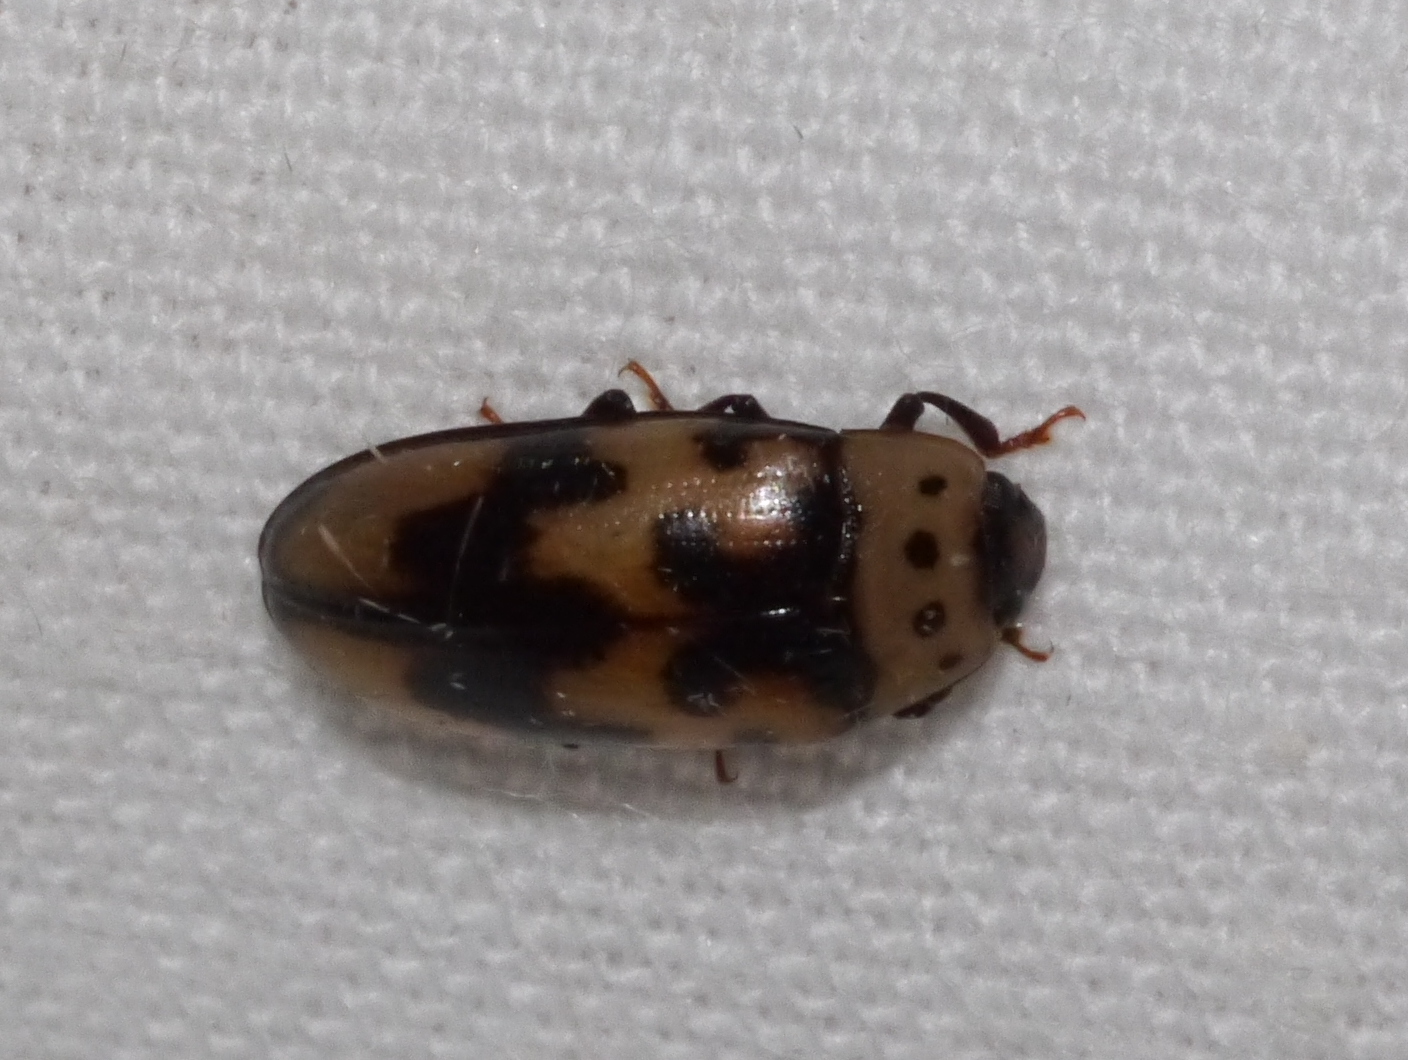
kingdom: Animalia
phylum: Arthropoda
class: Insecta
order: Coleoptera
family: Erotylidae
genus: Ischyrus
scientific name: Ischyrus quadripunctatus
